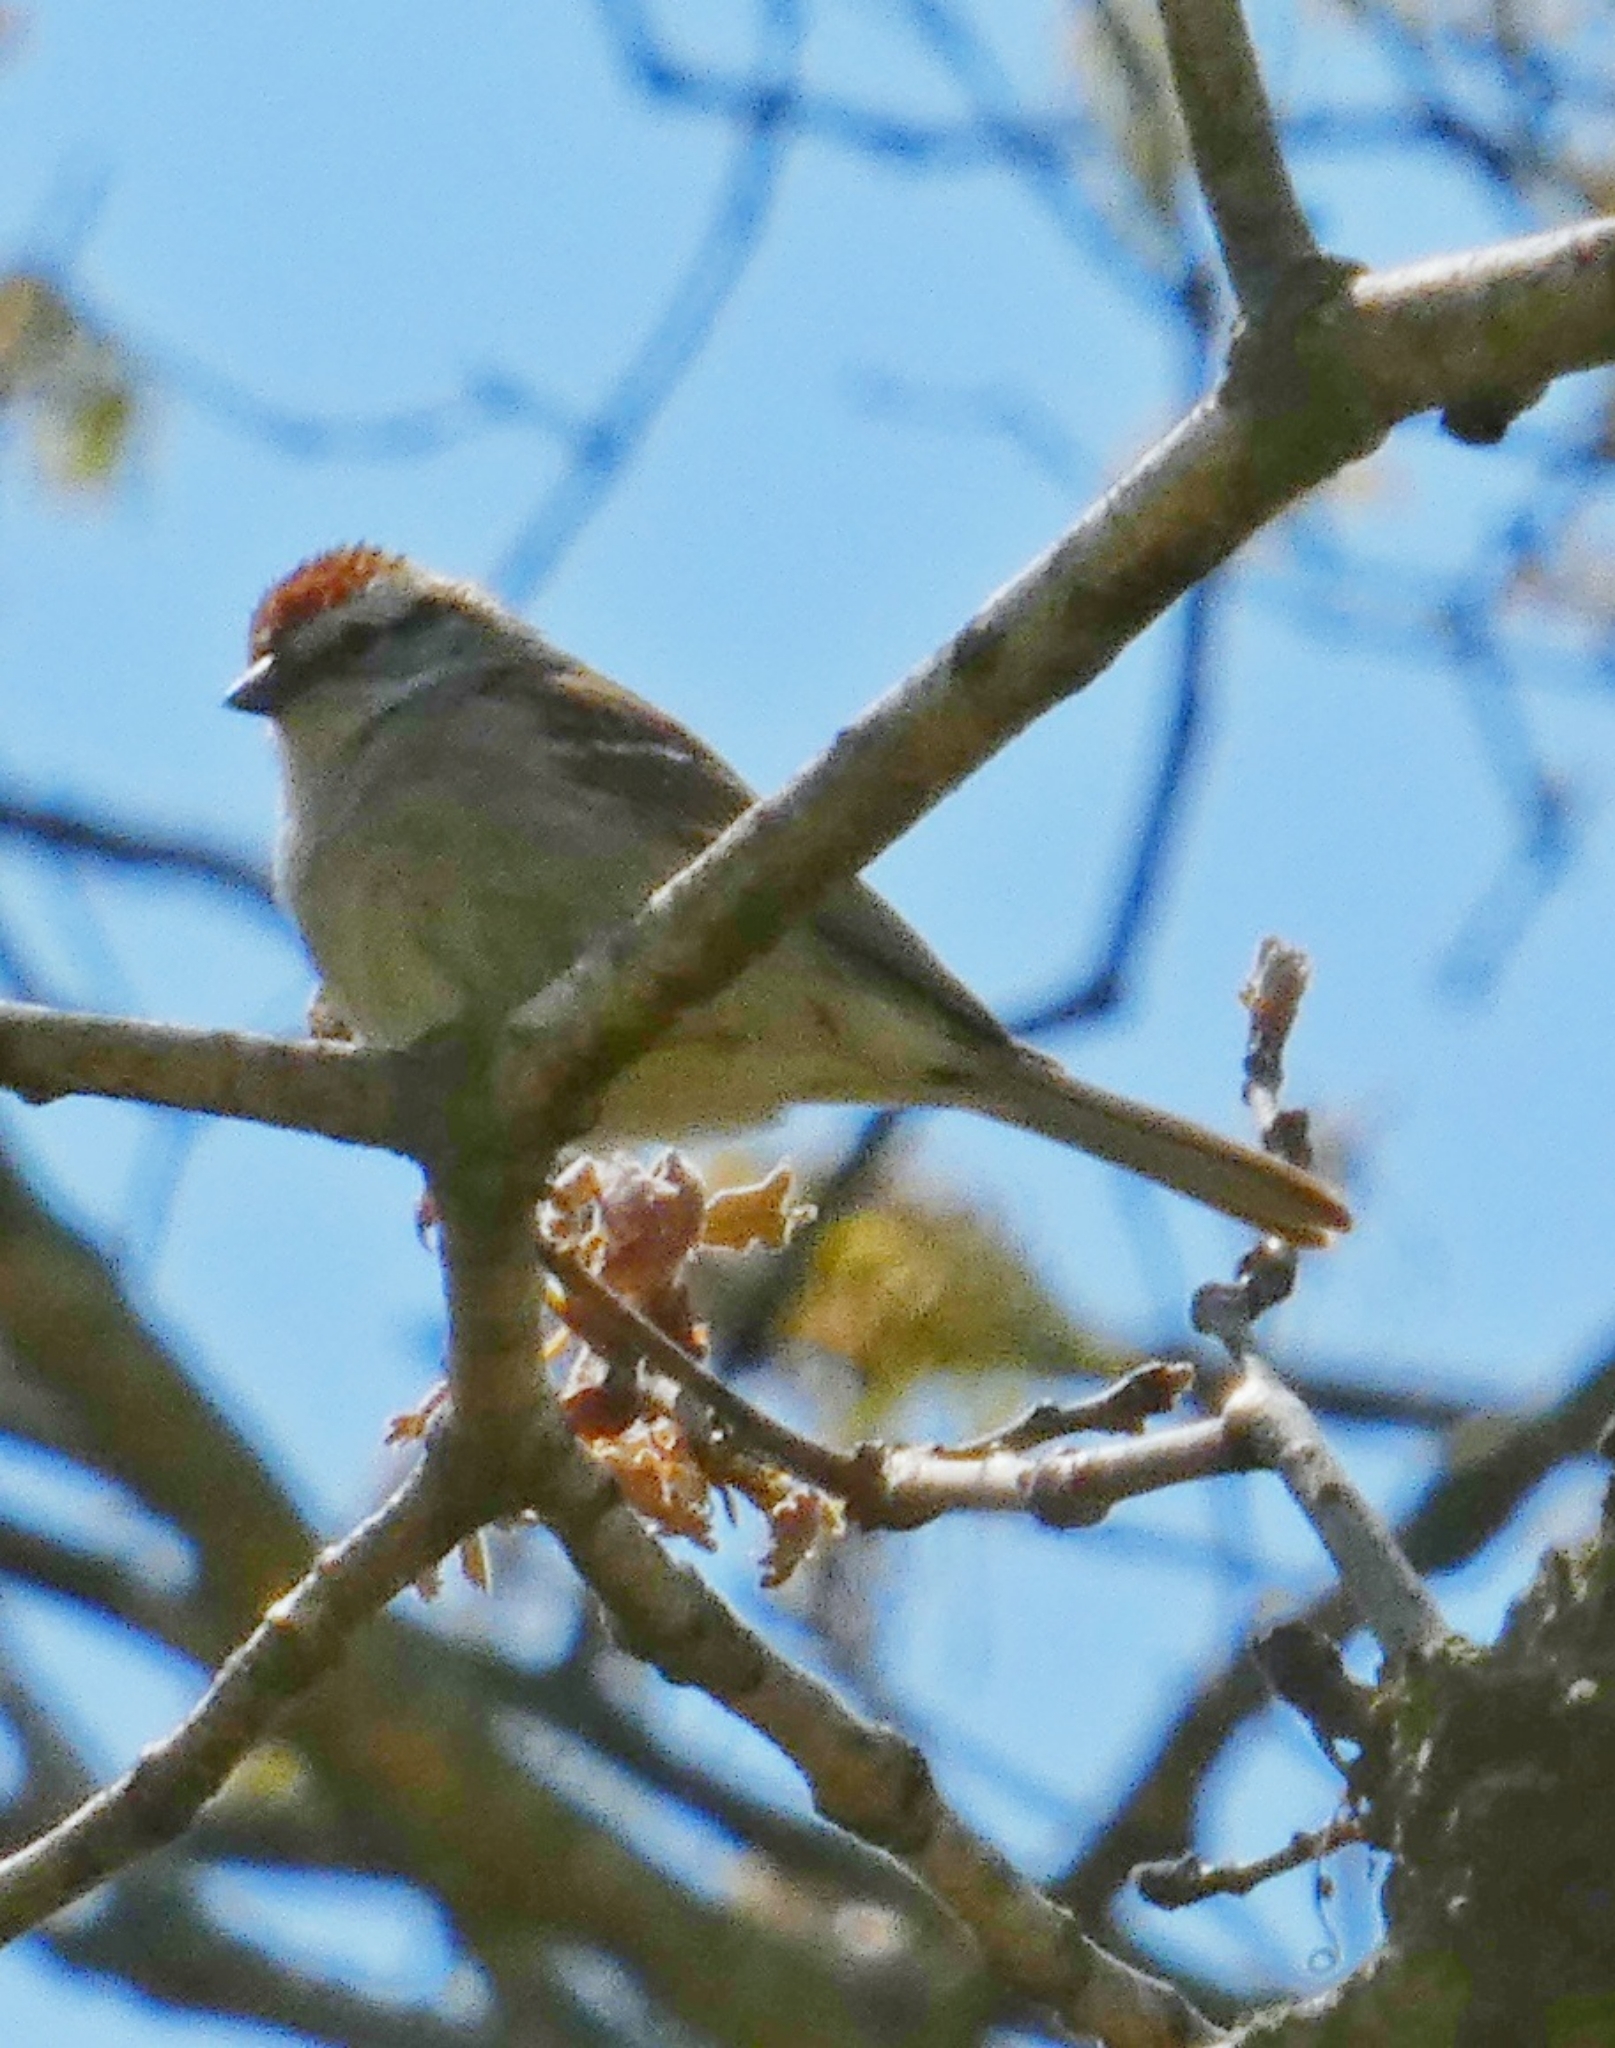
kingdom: Animalia
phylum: Chordata
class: Aves
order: Passeriformes
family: Passerellidae
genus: Spizella
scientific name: Spizella passerina
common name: Chipping sparrow
